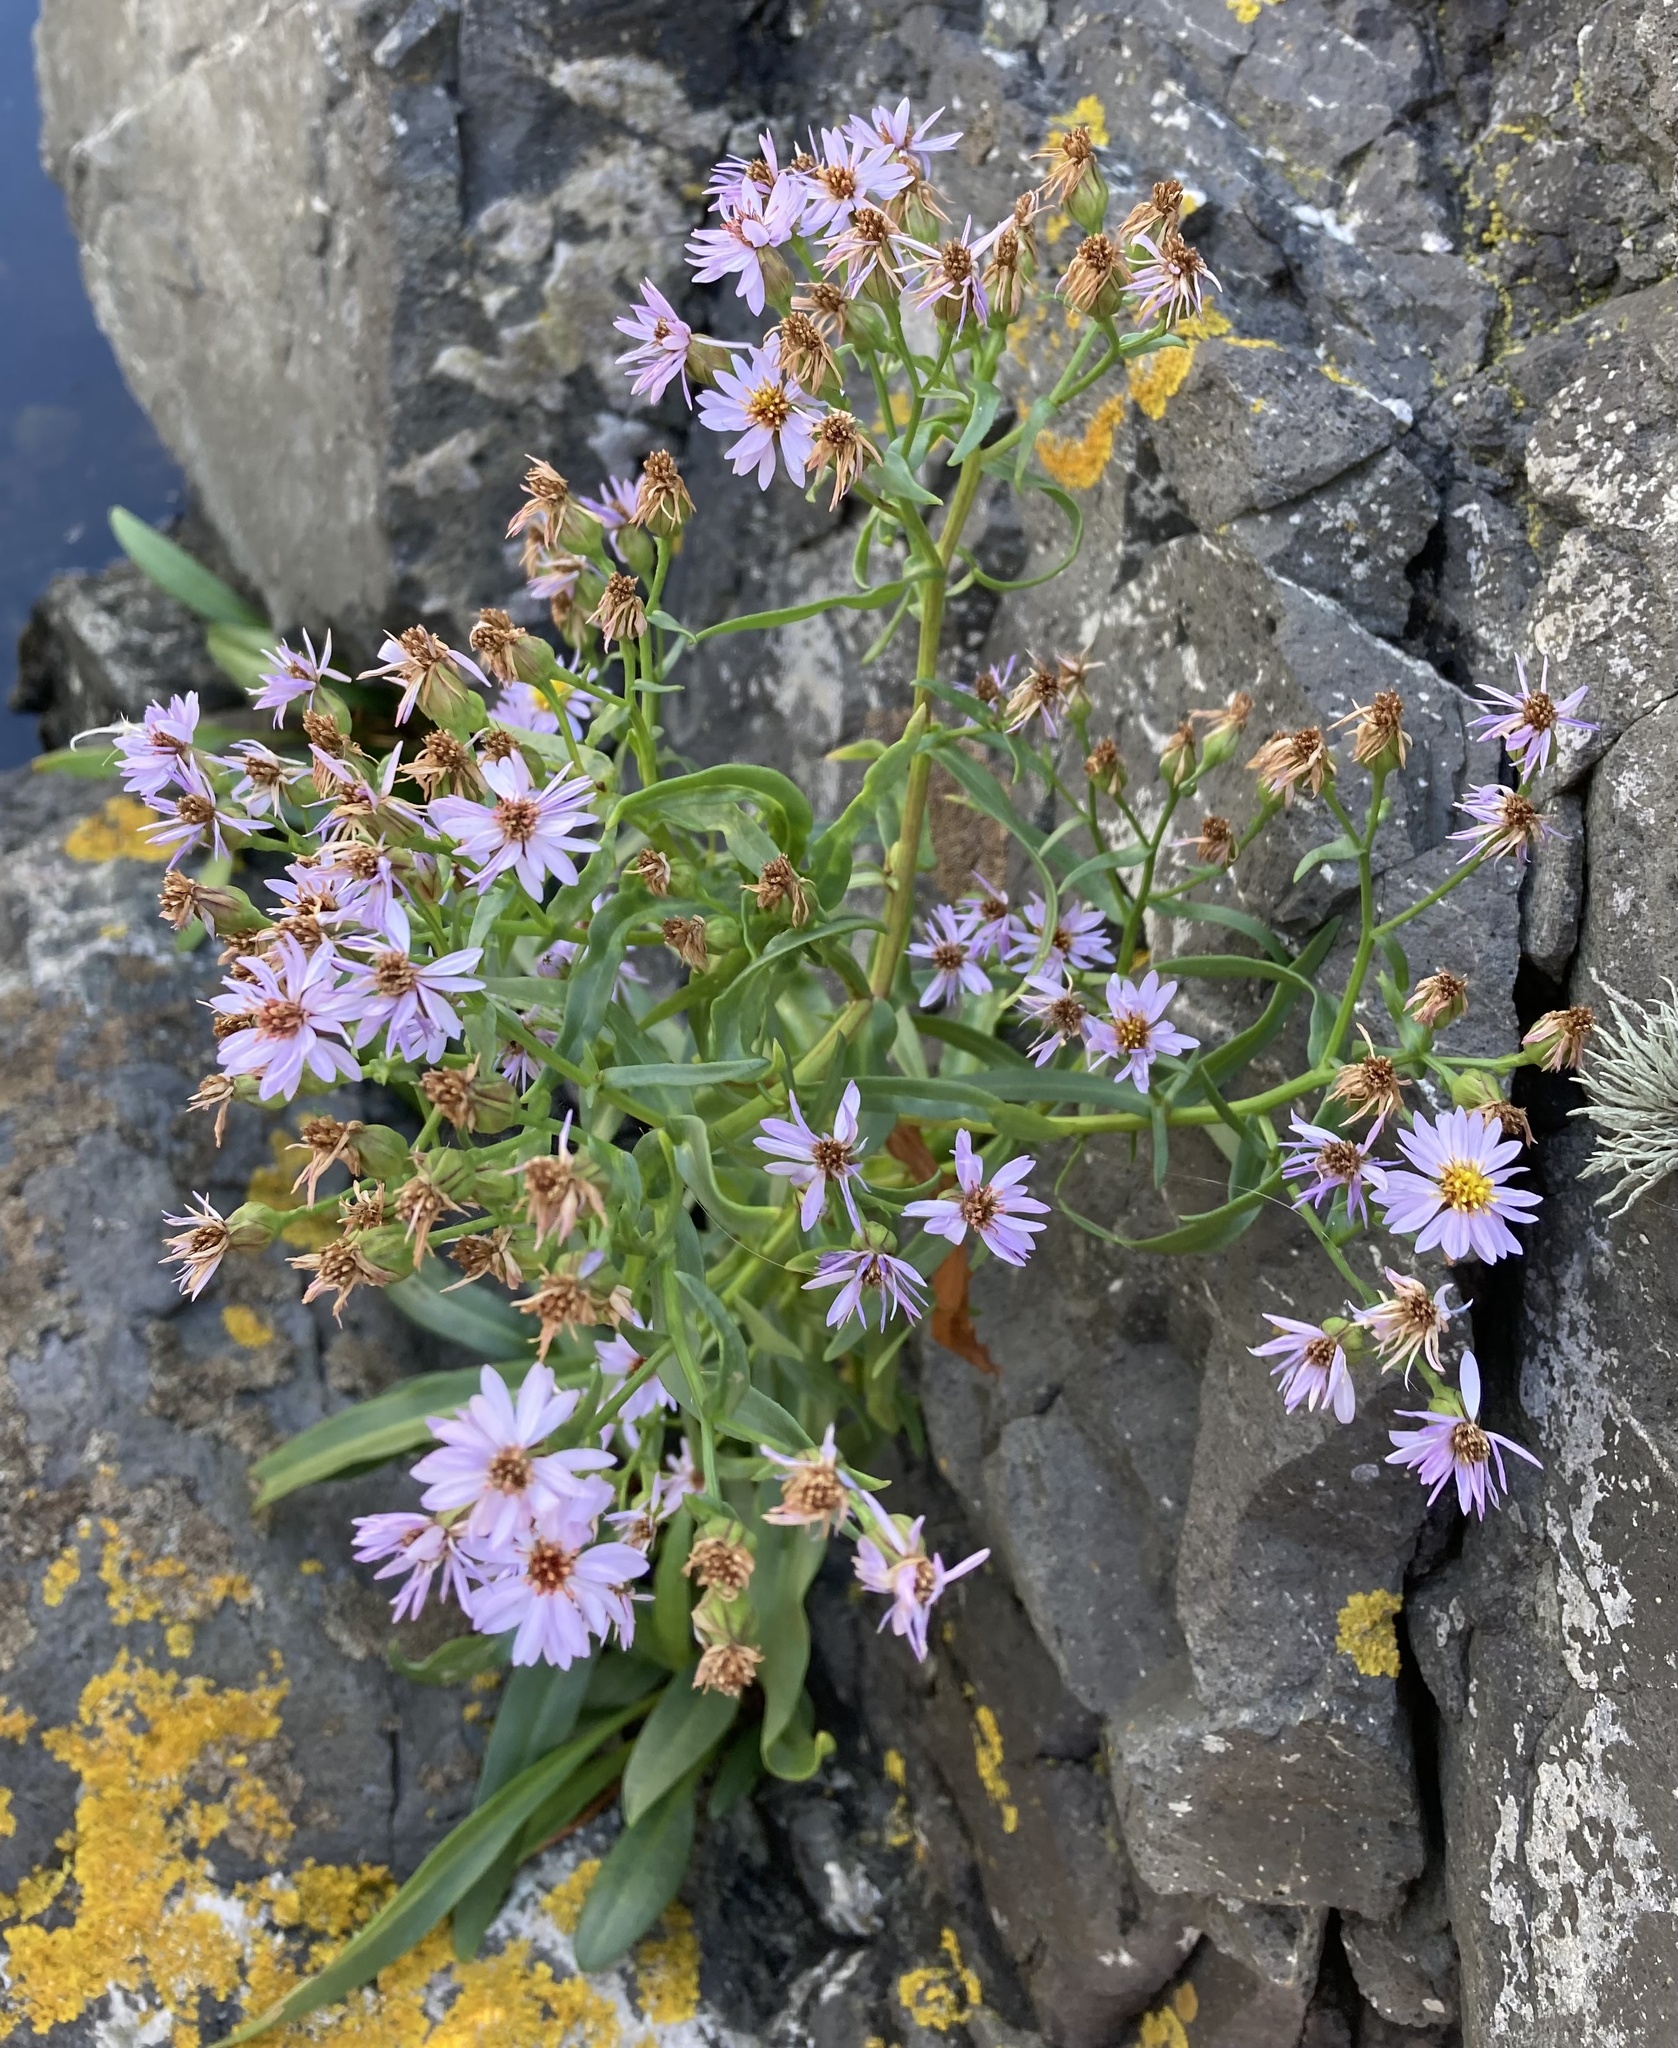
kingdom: Plantae
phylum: Tracheophyta
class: Magnoliopsida
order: Asterales
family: Asteraceae
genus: Tripolium
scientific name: Tripolium pannonicum
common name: Sea aster
